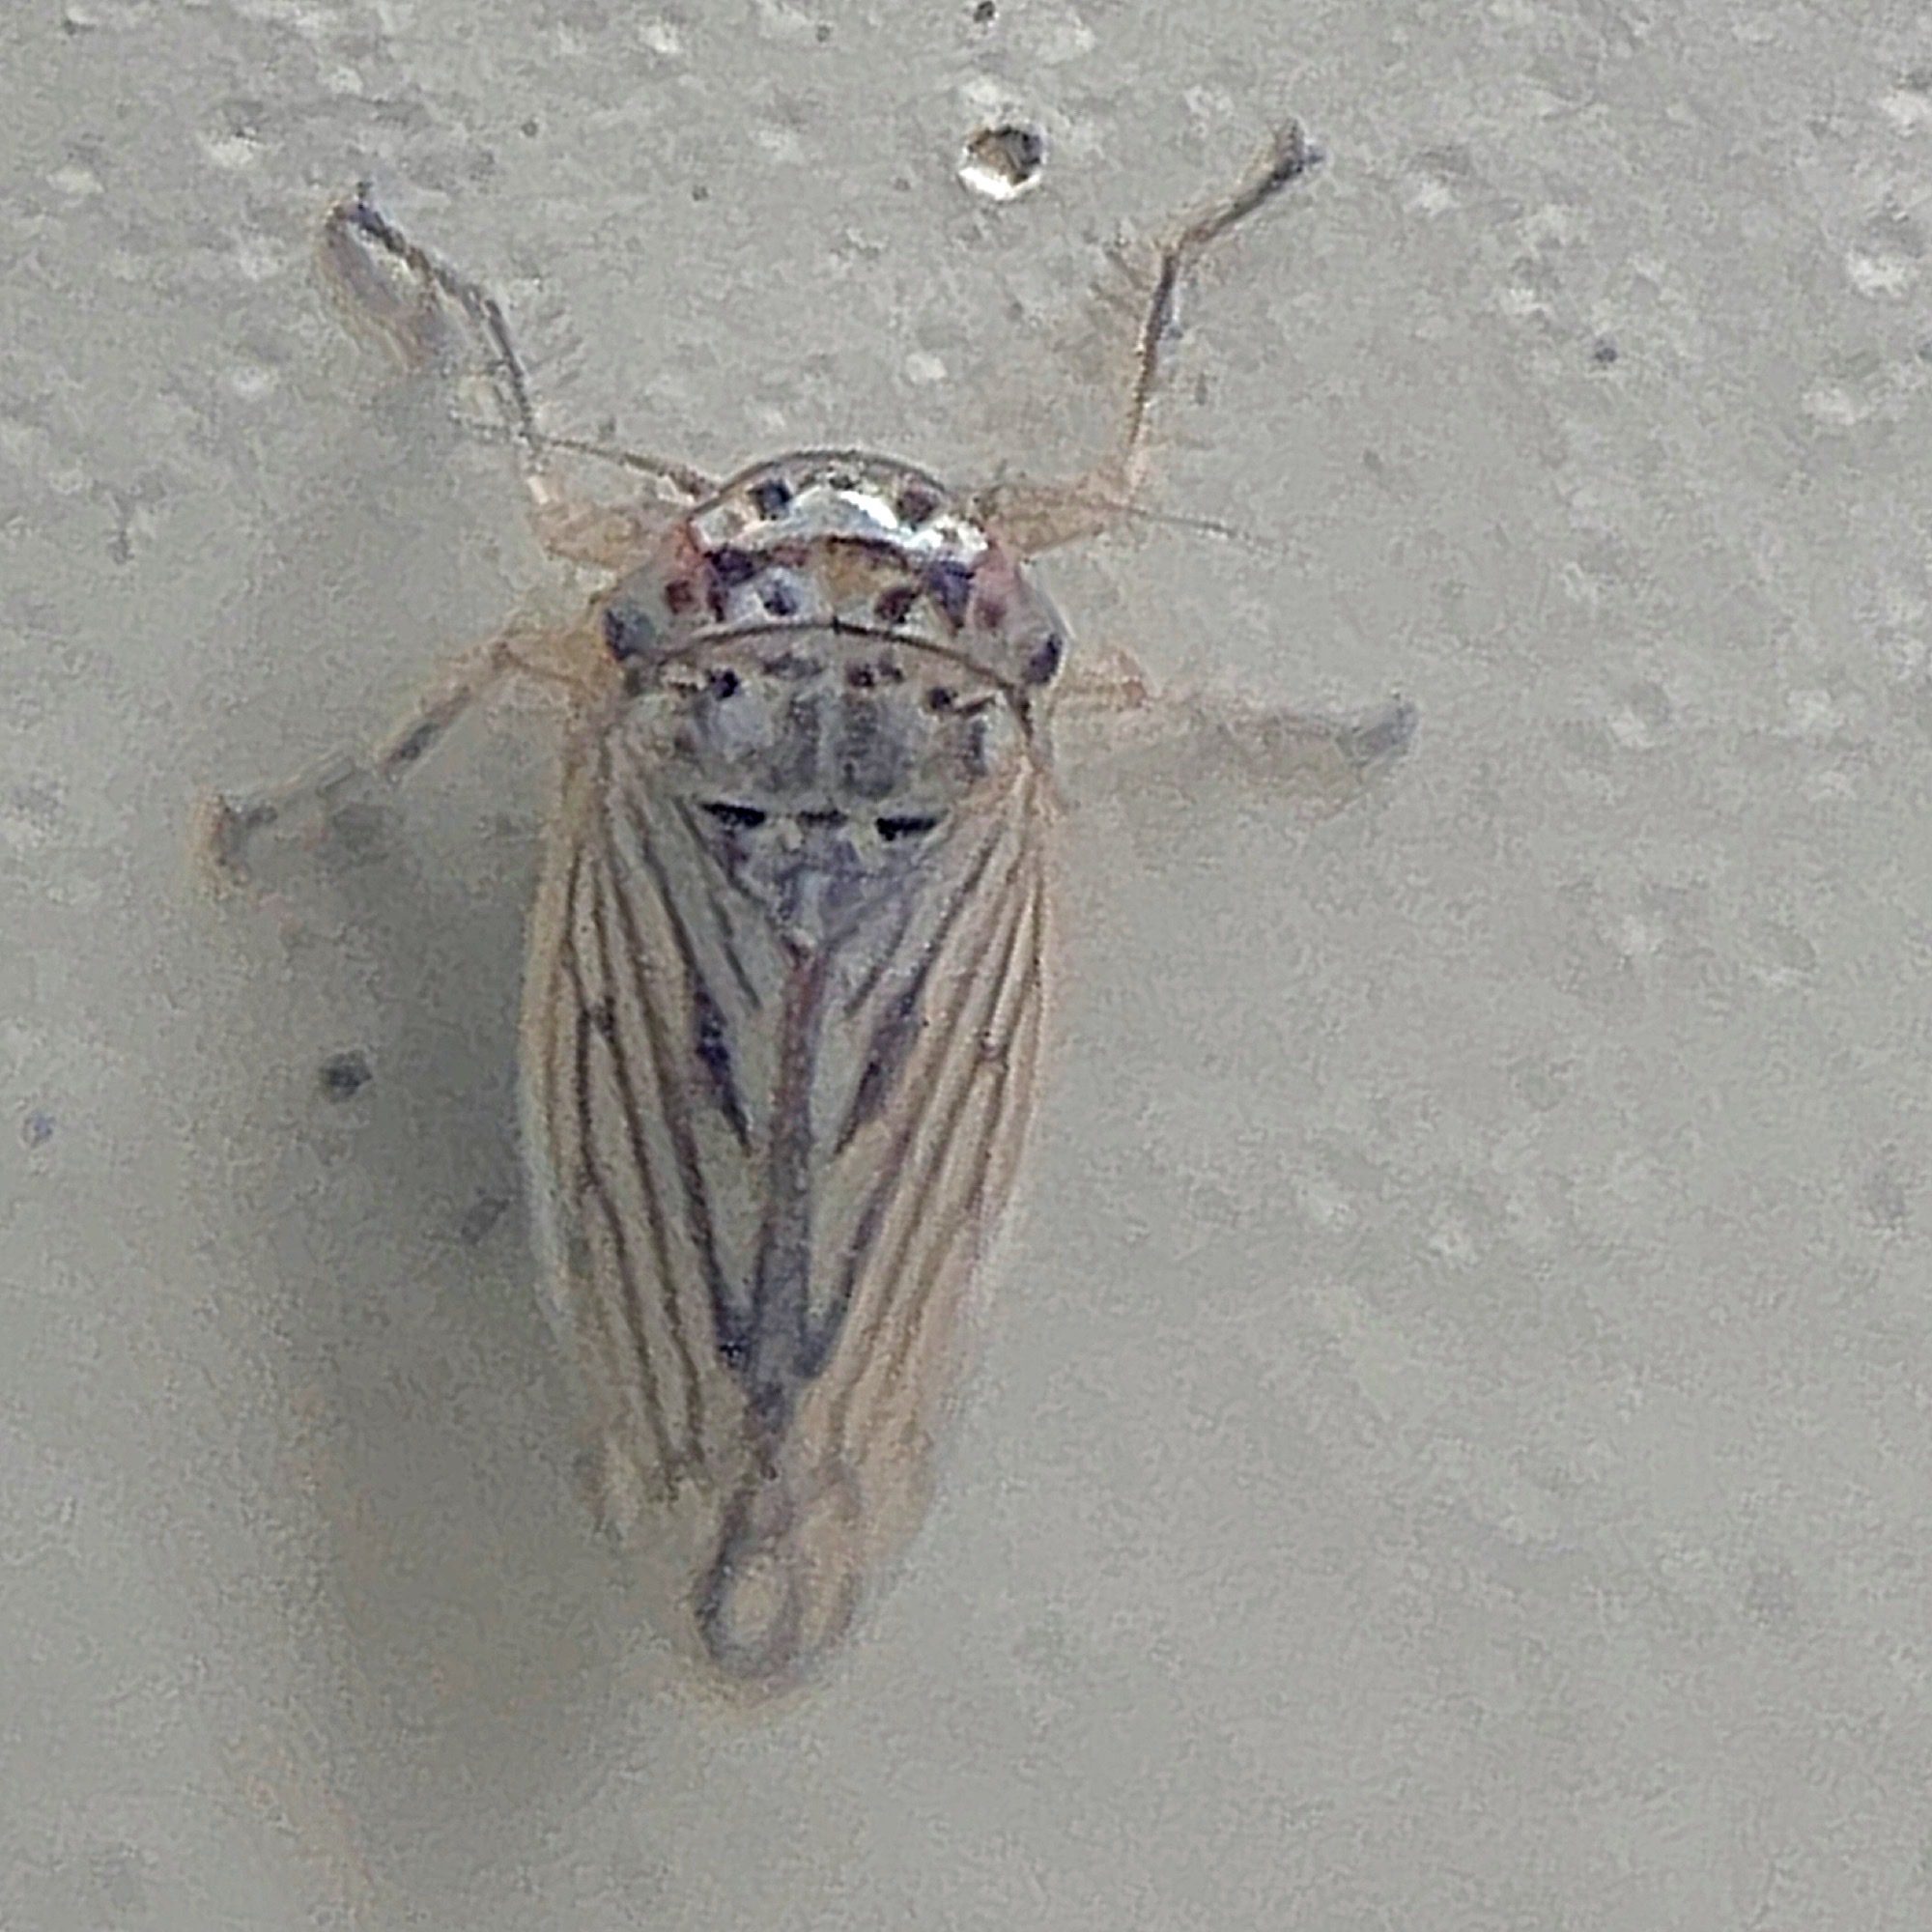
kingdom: Animalia
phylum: Arthropoda
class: Insecta
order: Hemiptera
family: Cicadellidae
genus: Exitianus
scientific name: Exitianus exitiosus
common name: Gray lawn leafhopper
